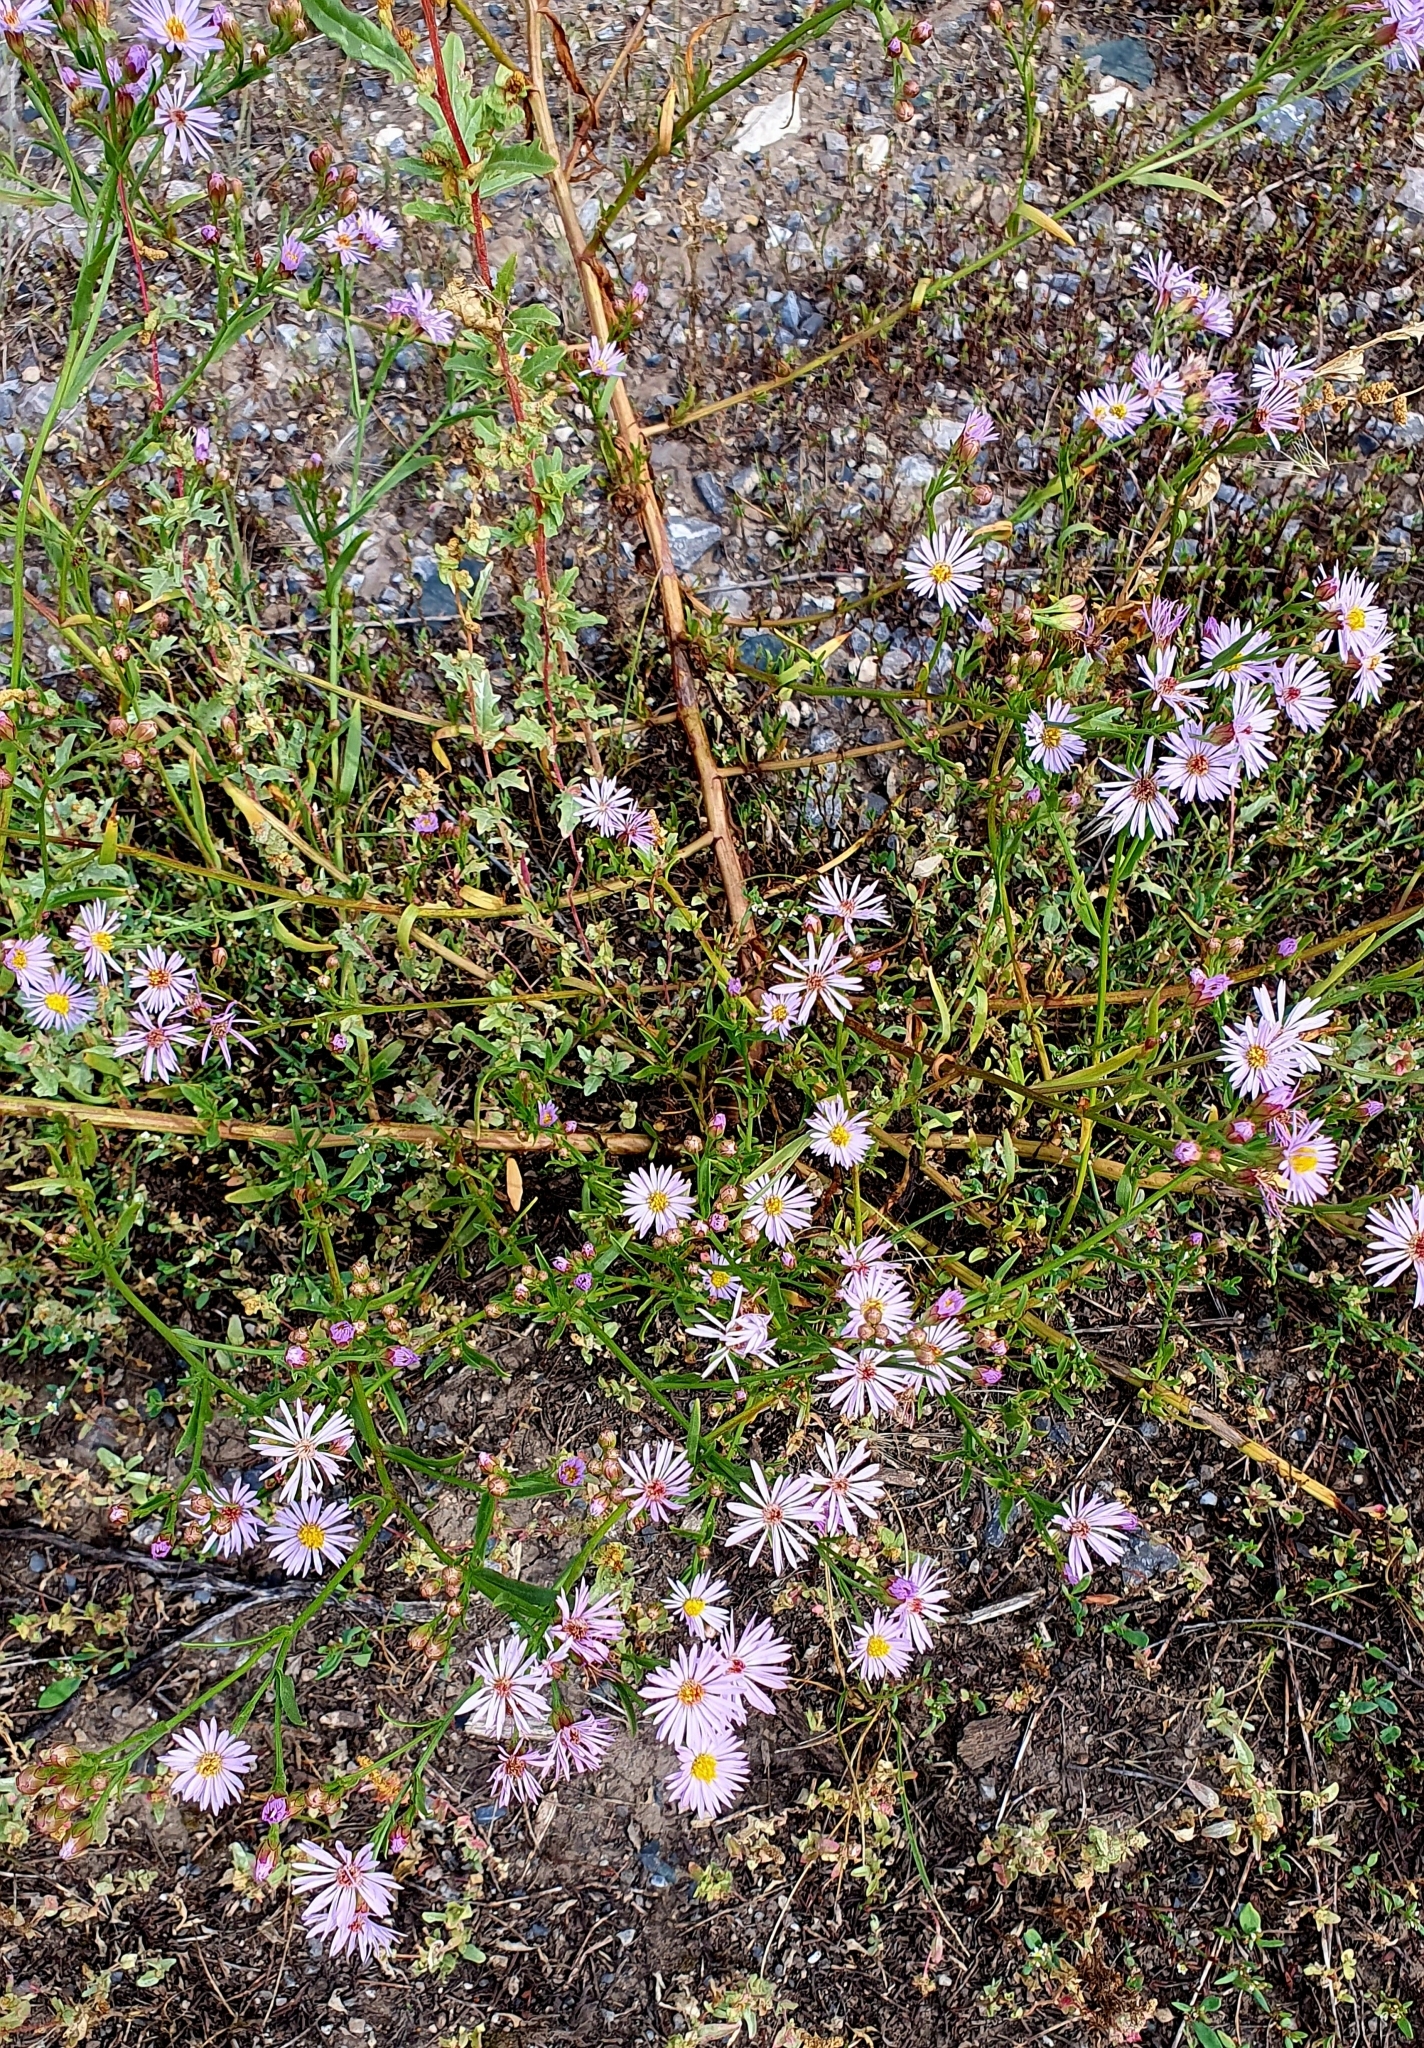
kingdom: Plantae
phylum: Tracheophyta
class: Magnoliopsida
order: Asterales
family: Asteraceae
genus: Tripolium
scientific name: Tripolium pannonicum
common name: Sea aster
